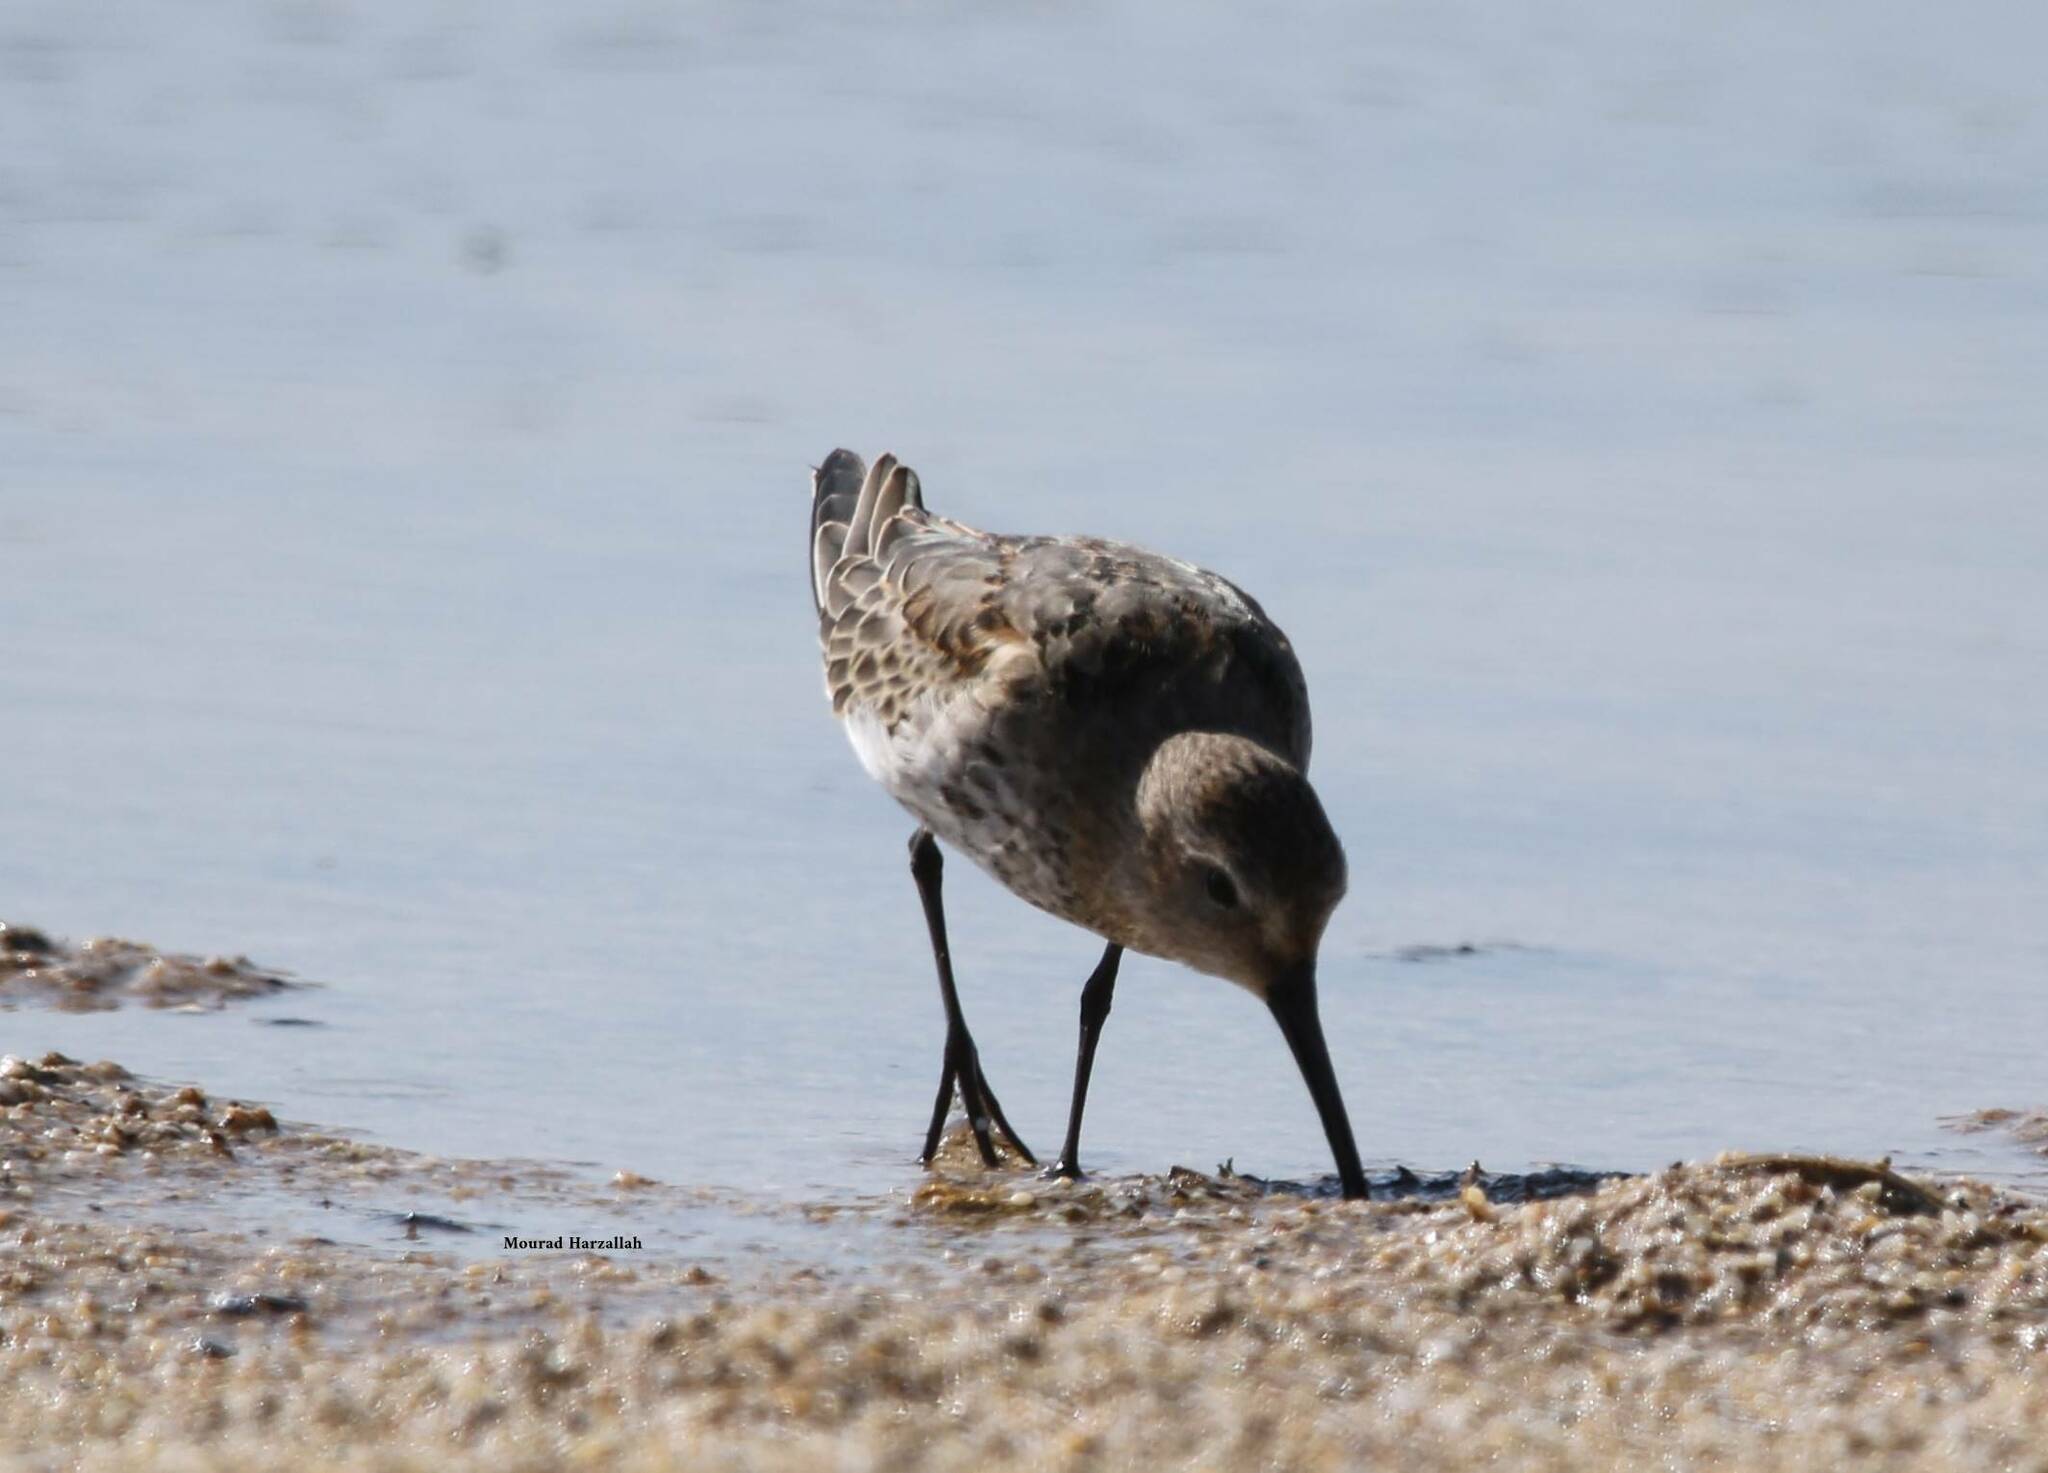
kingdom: Animalia
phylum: Chordata
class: Aves
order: Charadriiformes
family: Scolopacidae
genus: Calidris
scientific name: Calidris alpina
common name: Dunlin
